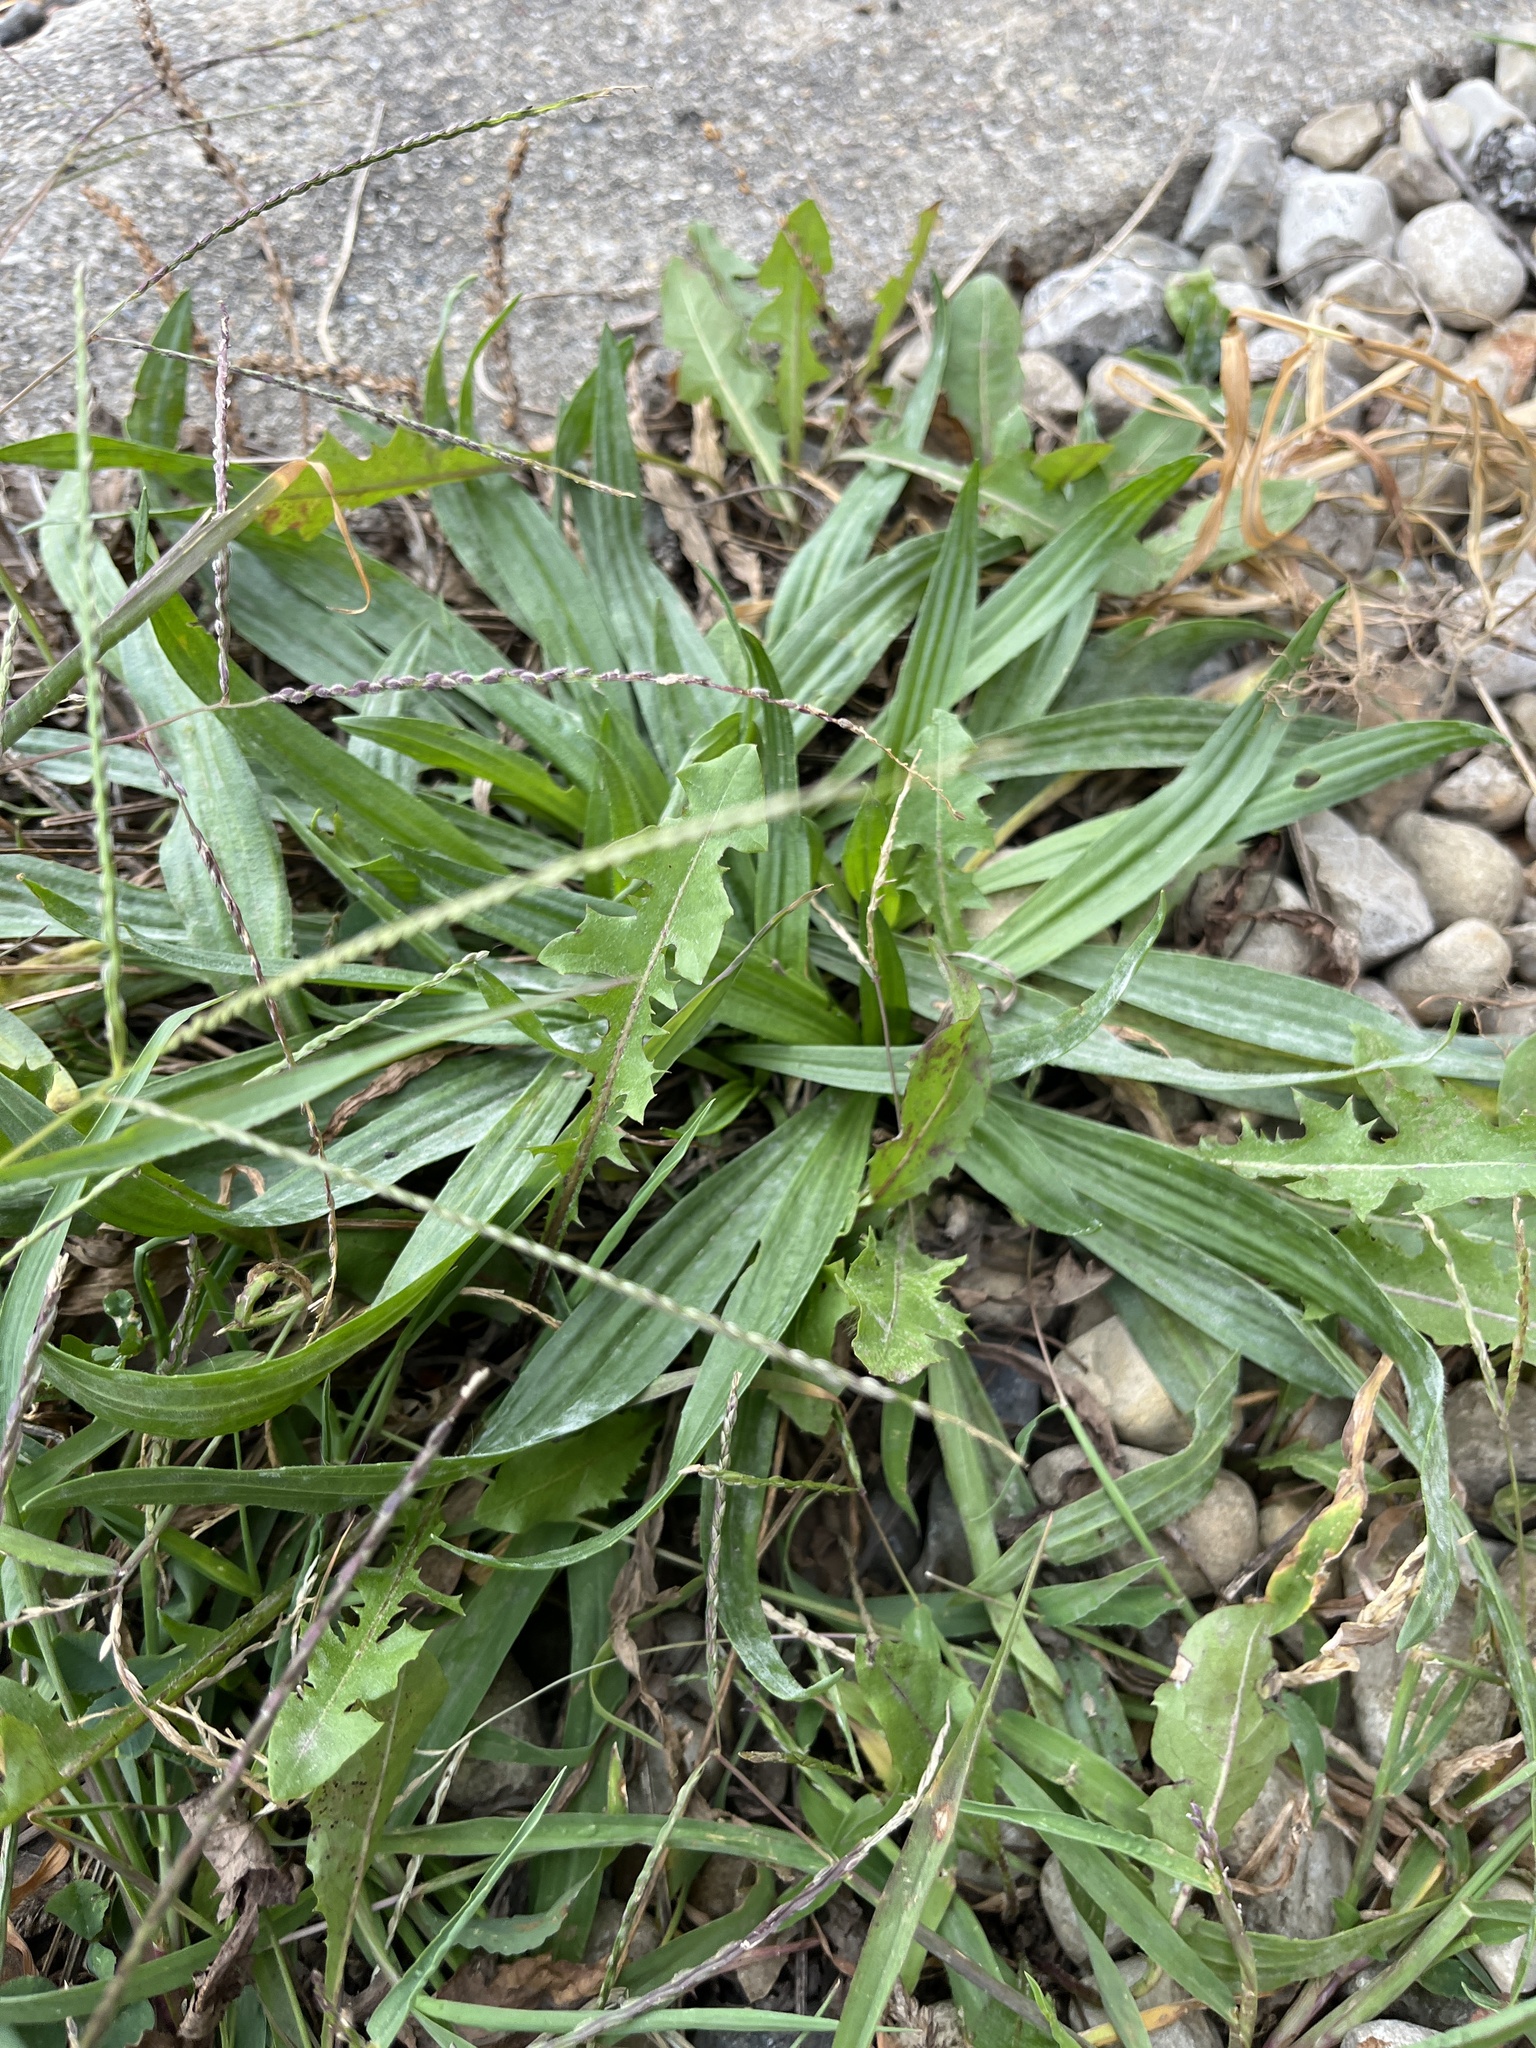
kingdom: Plantae
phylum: Tracheophyta
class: Magnoliopsida
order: Lamiales
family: Plantaginaceae
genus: Plantago
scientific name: Plantago lanceolata
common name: Ribwort plantain
